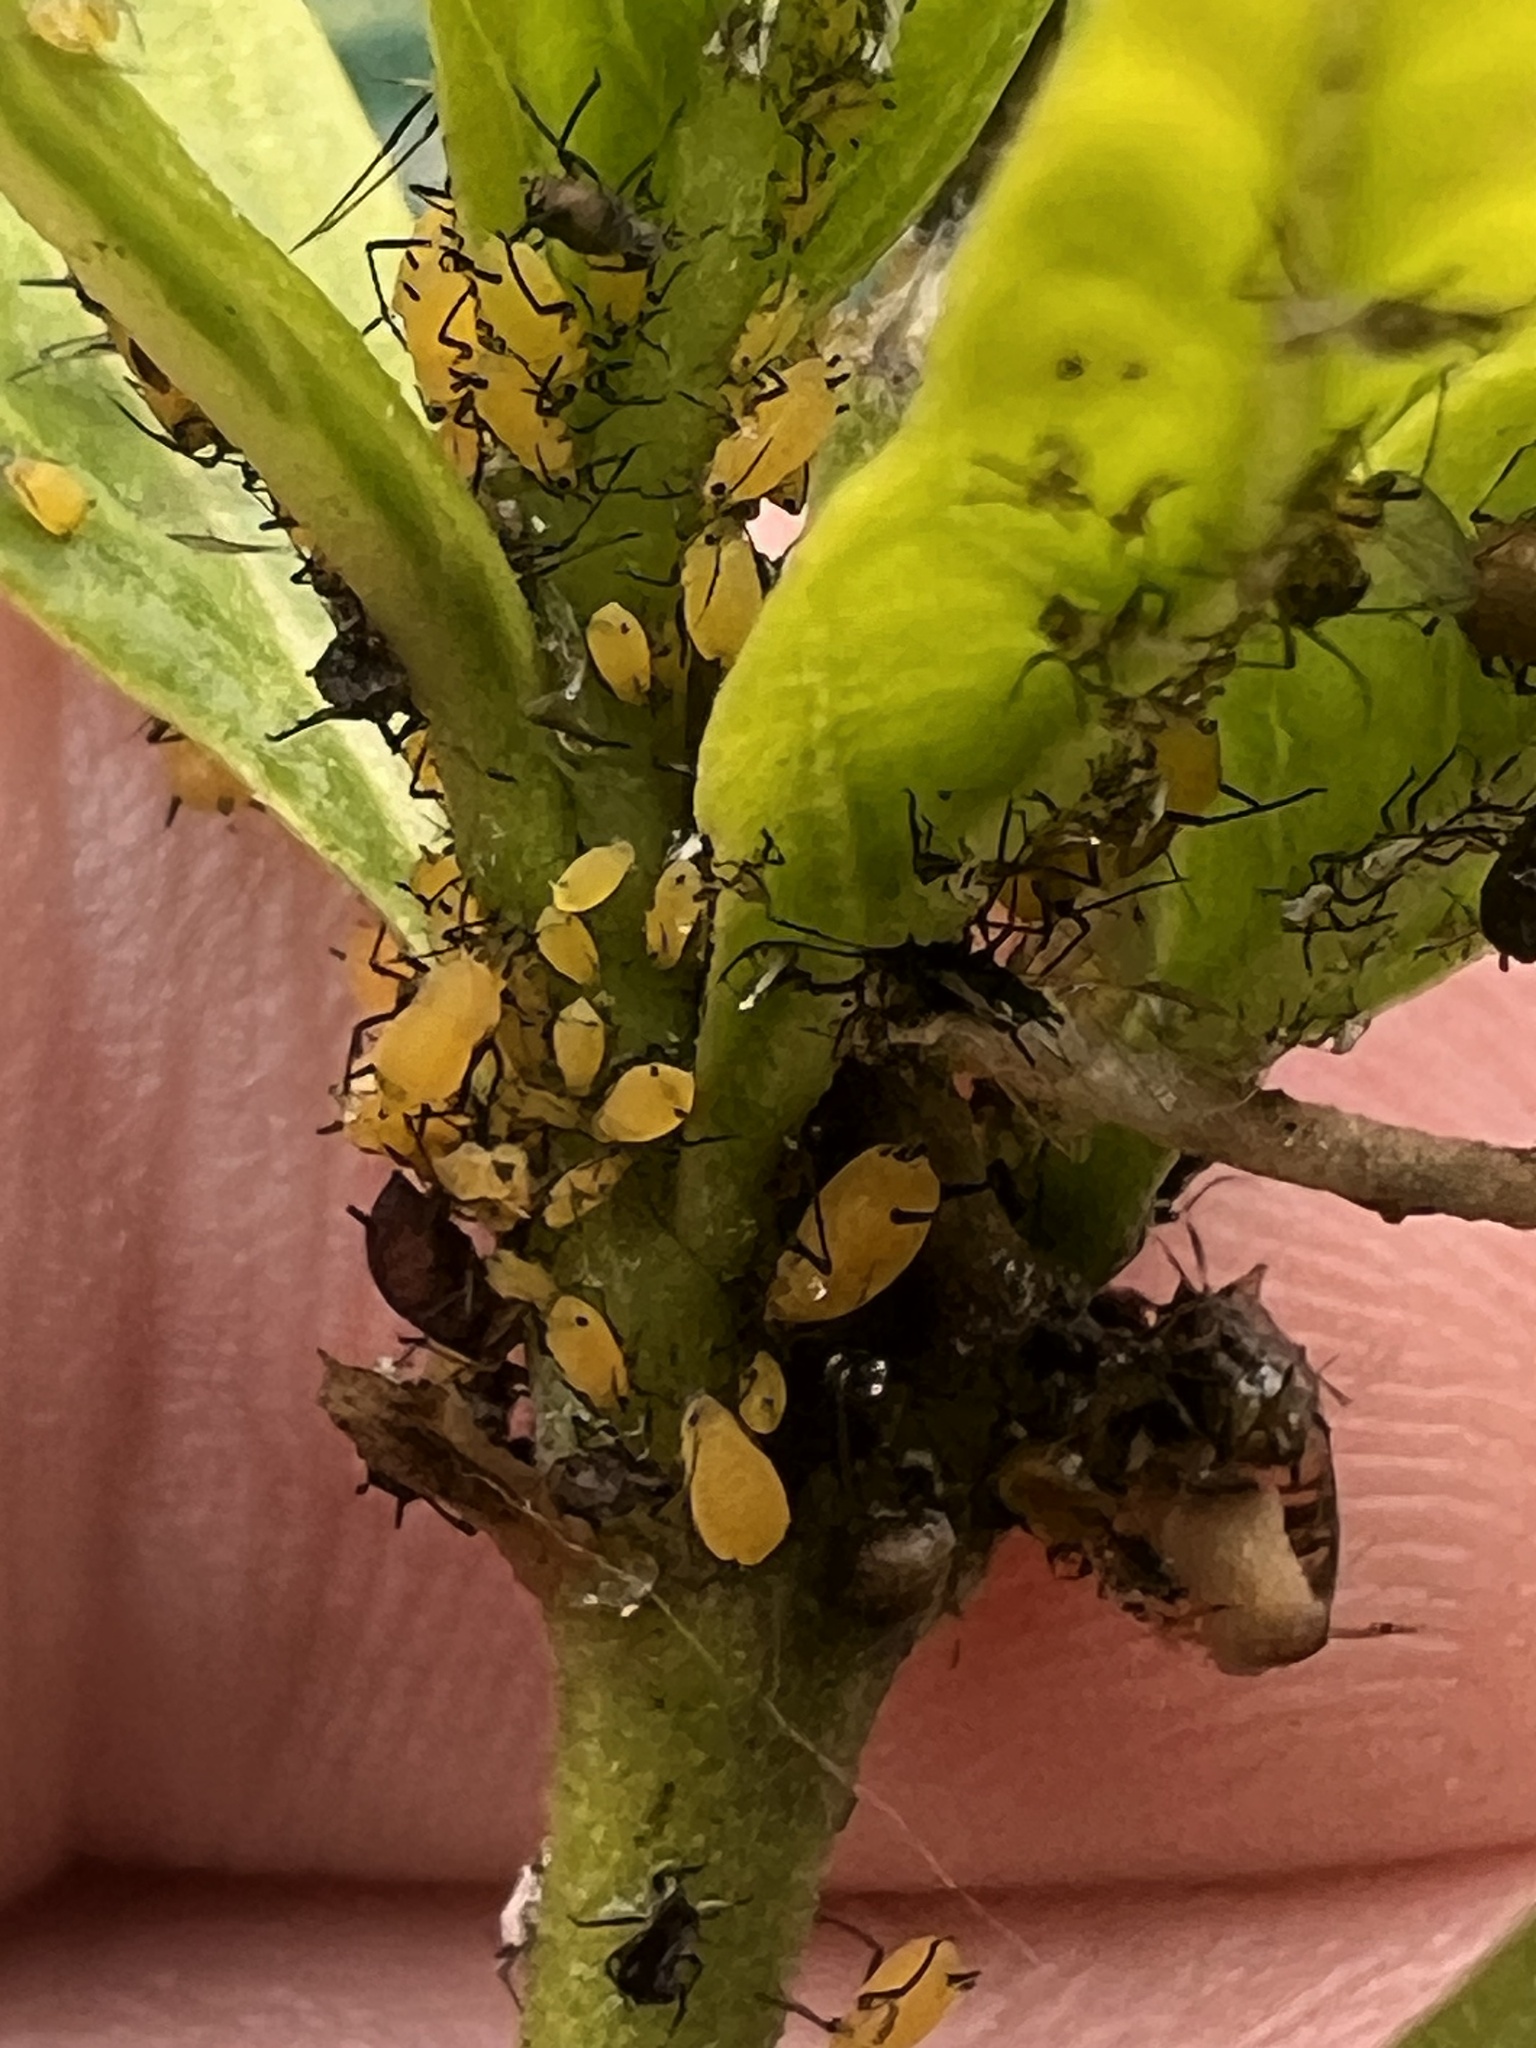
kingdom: Animalia
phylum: Arthropoda
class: Insecta
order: Hemiptera
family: Aphididae
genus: Aphis
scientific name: Aphis nerii
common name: Oleander aphid
